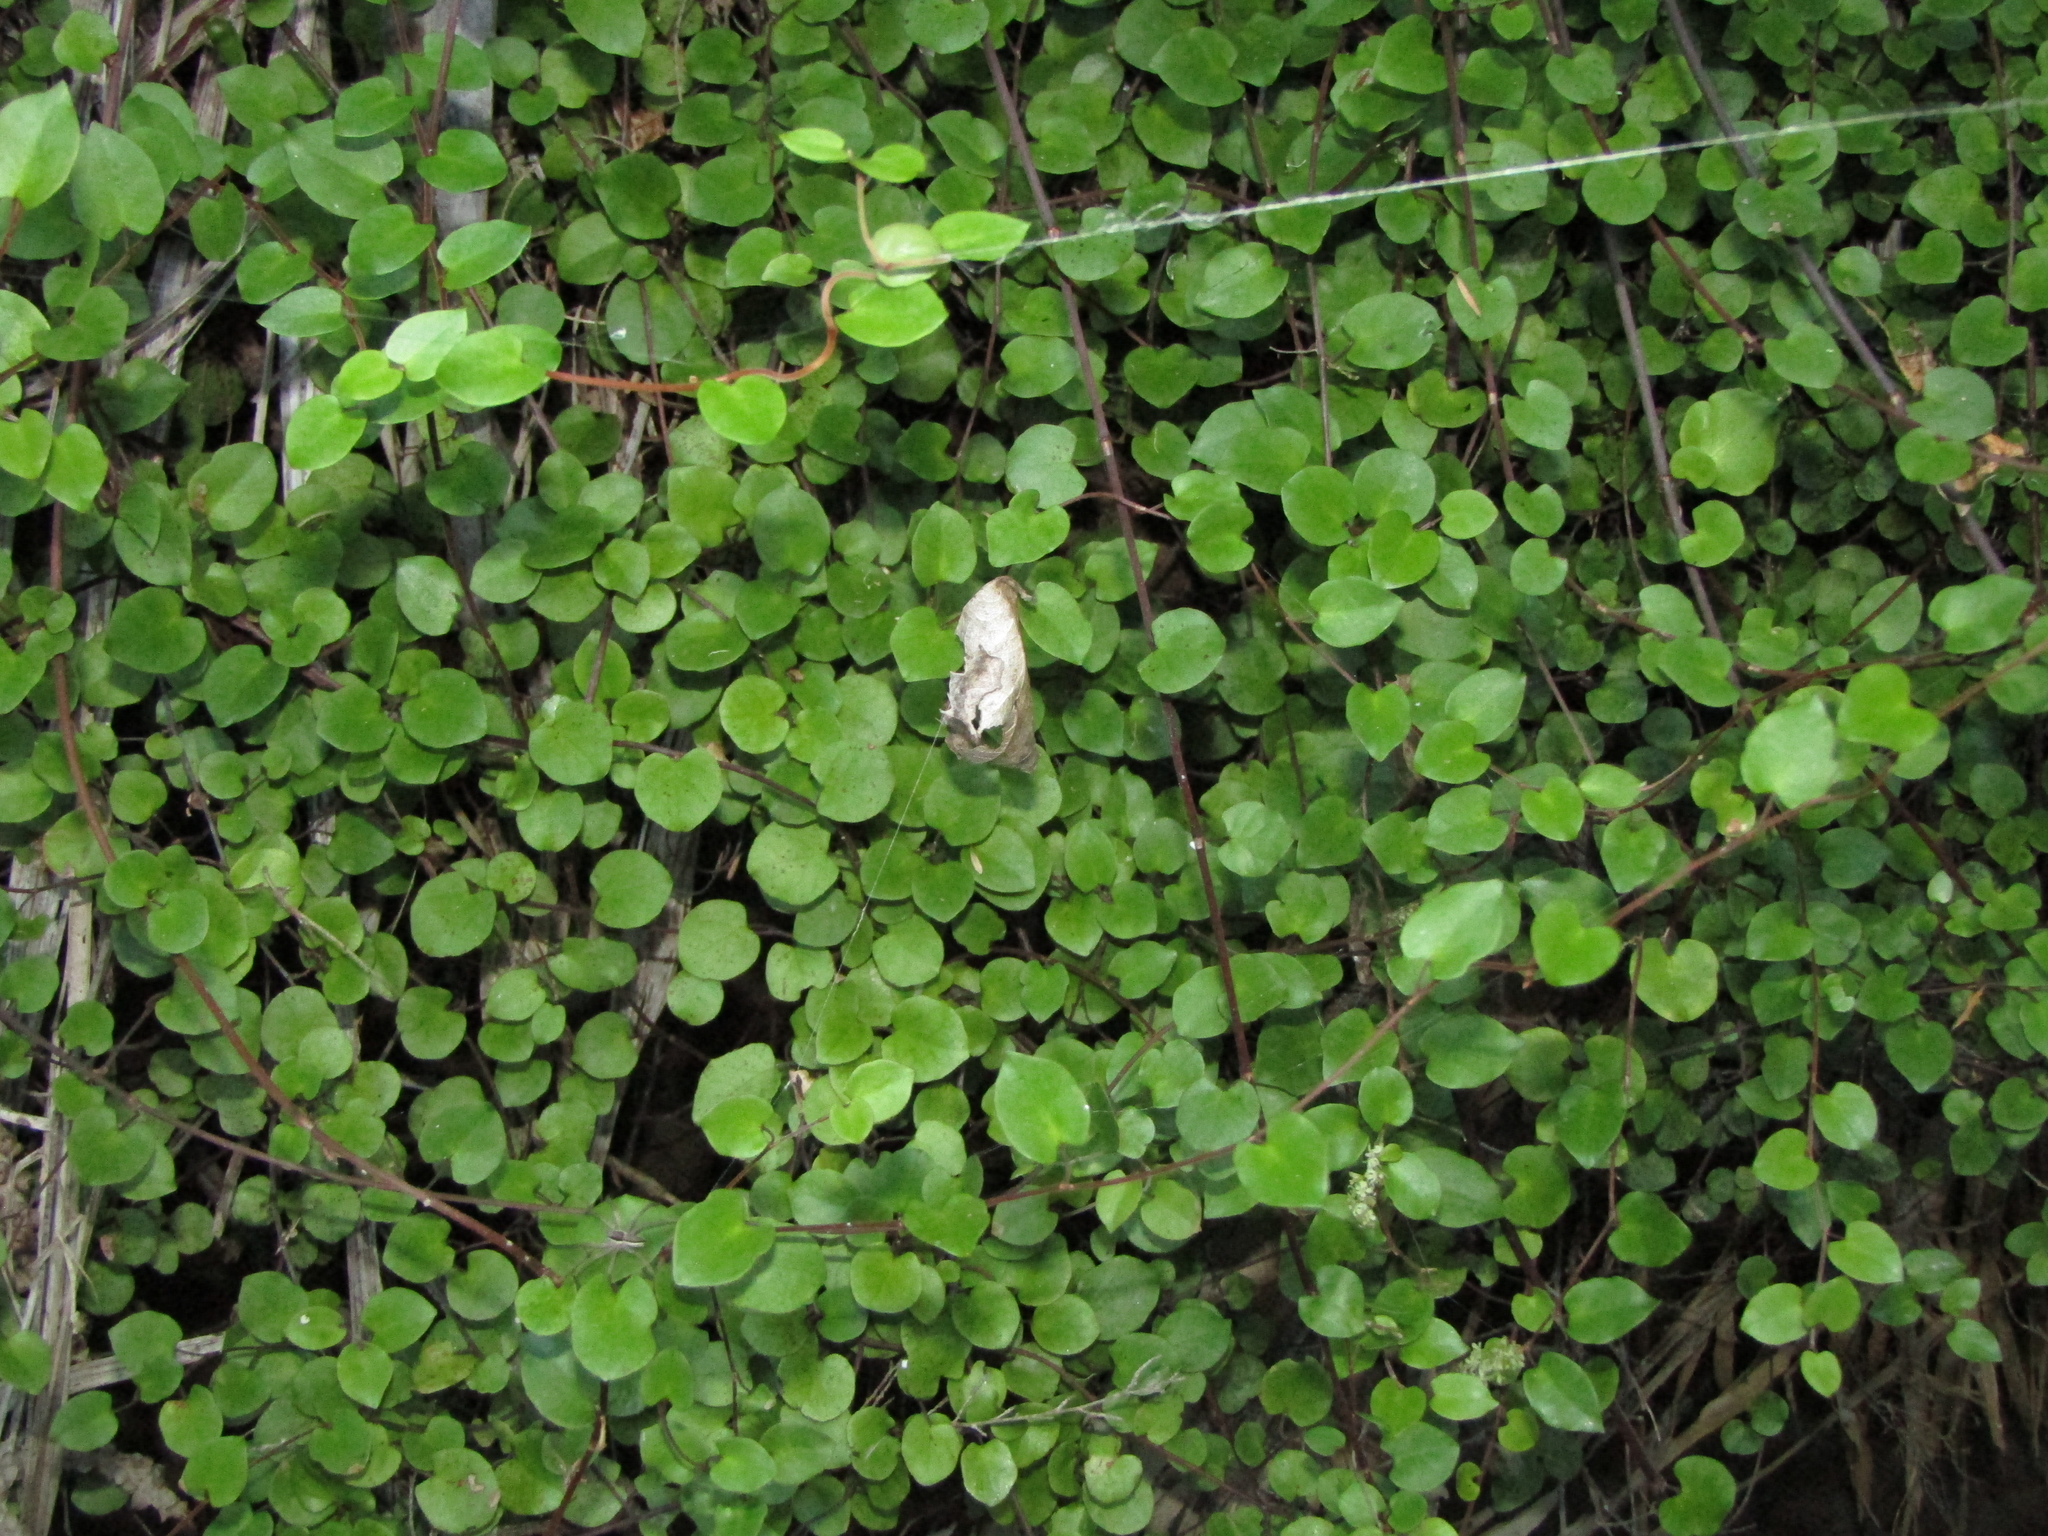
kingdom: Plantae
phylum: Tracheophyta
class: Magnoliopsida
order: Caryophyllales
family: Polygonaceae
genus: Muehlenbeckia
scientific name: Muehlenbeckia australis
